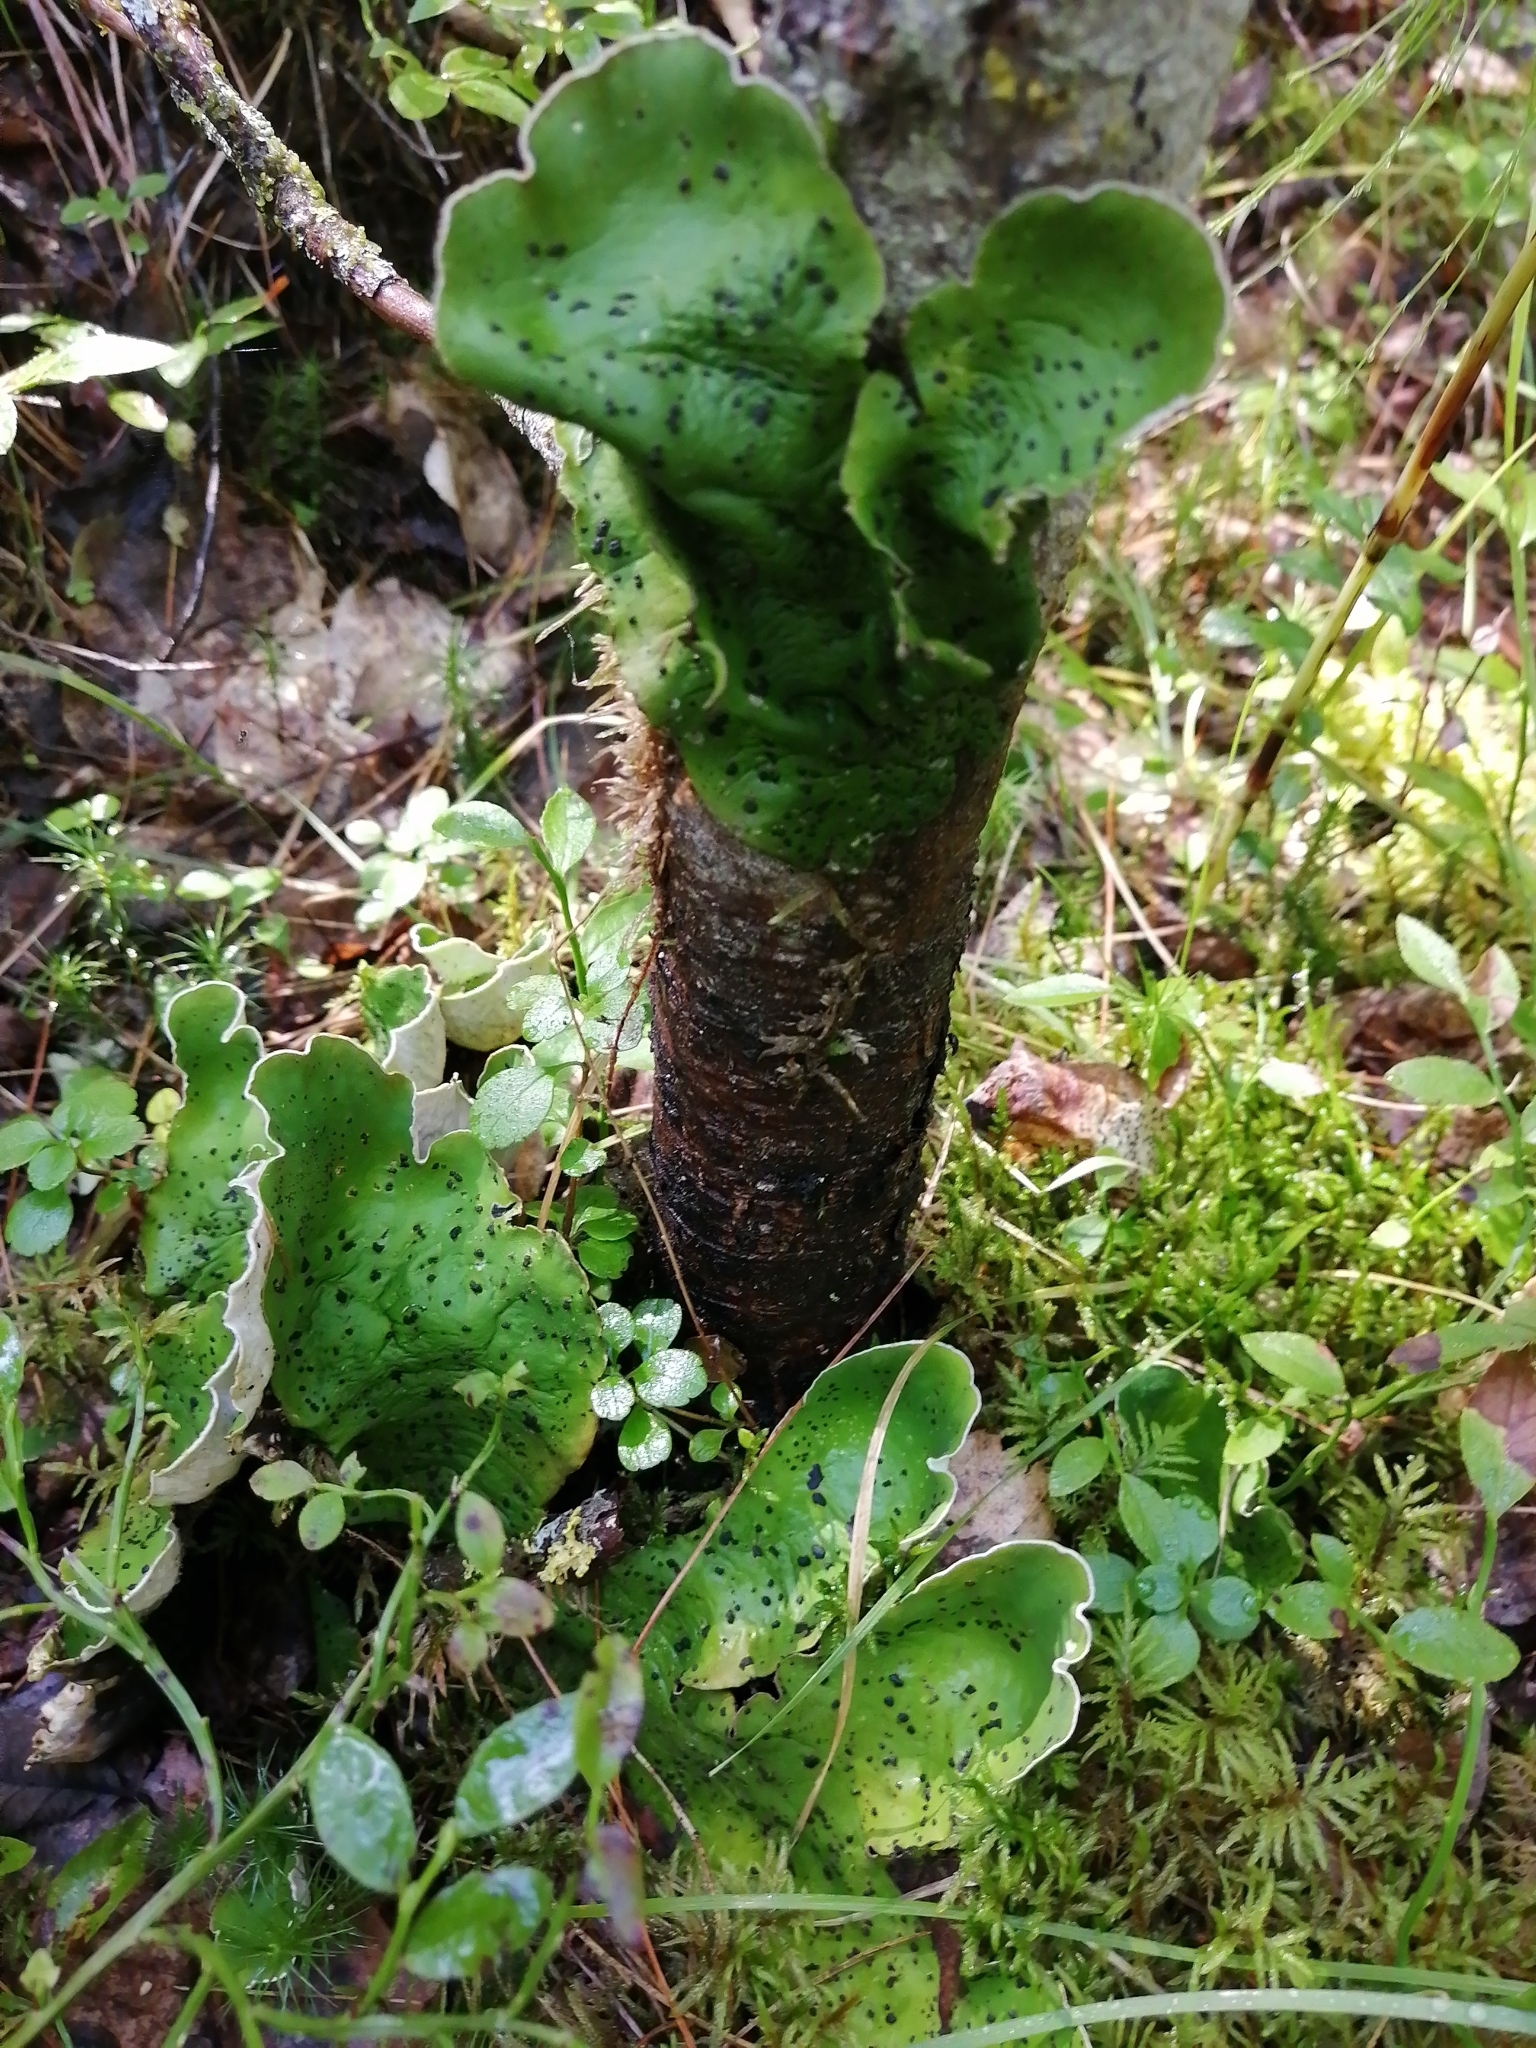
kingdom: Fungi
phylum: Ascomycota
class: Lecanoromycetes
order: Peltigerales
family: Peltigeraceae
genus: Peltigera
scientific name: Peltigera aphthosa
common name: Common freckle pelt lichen
